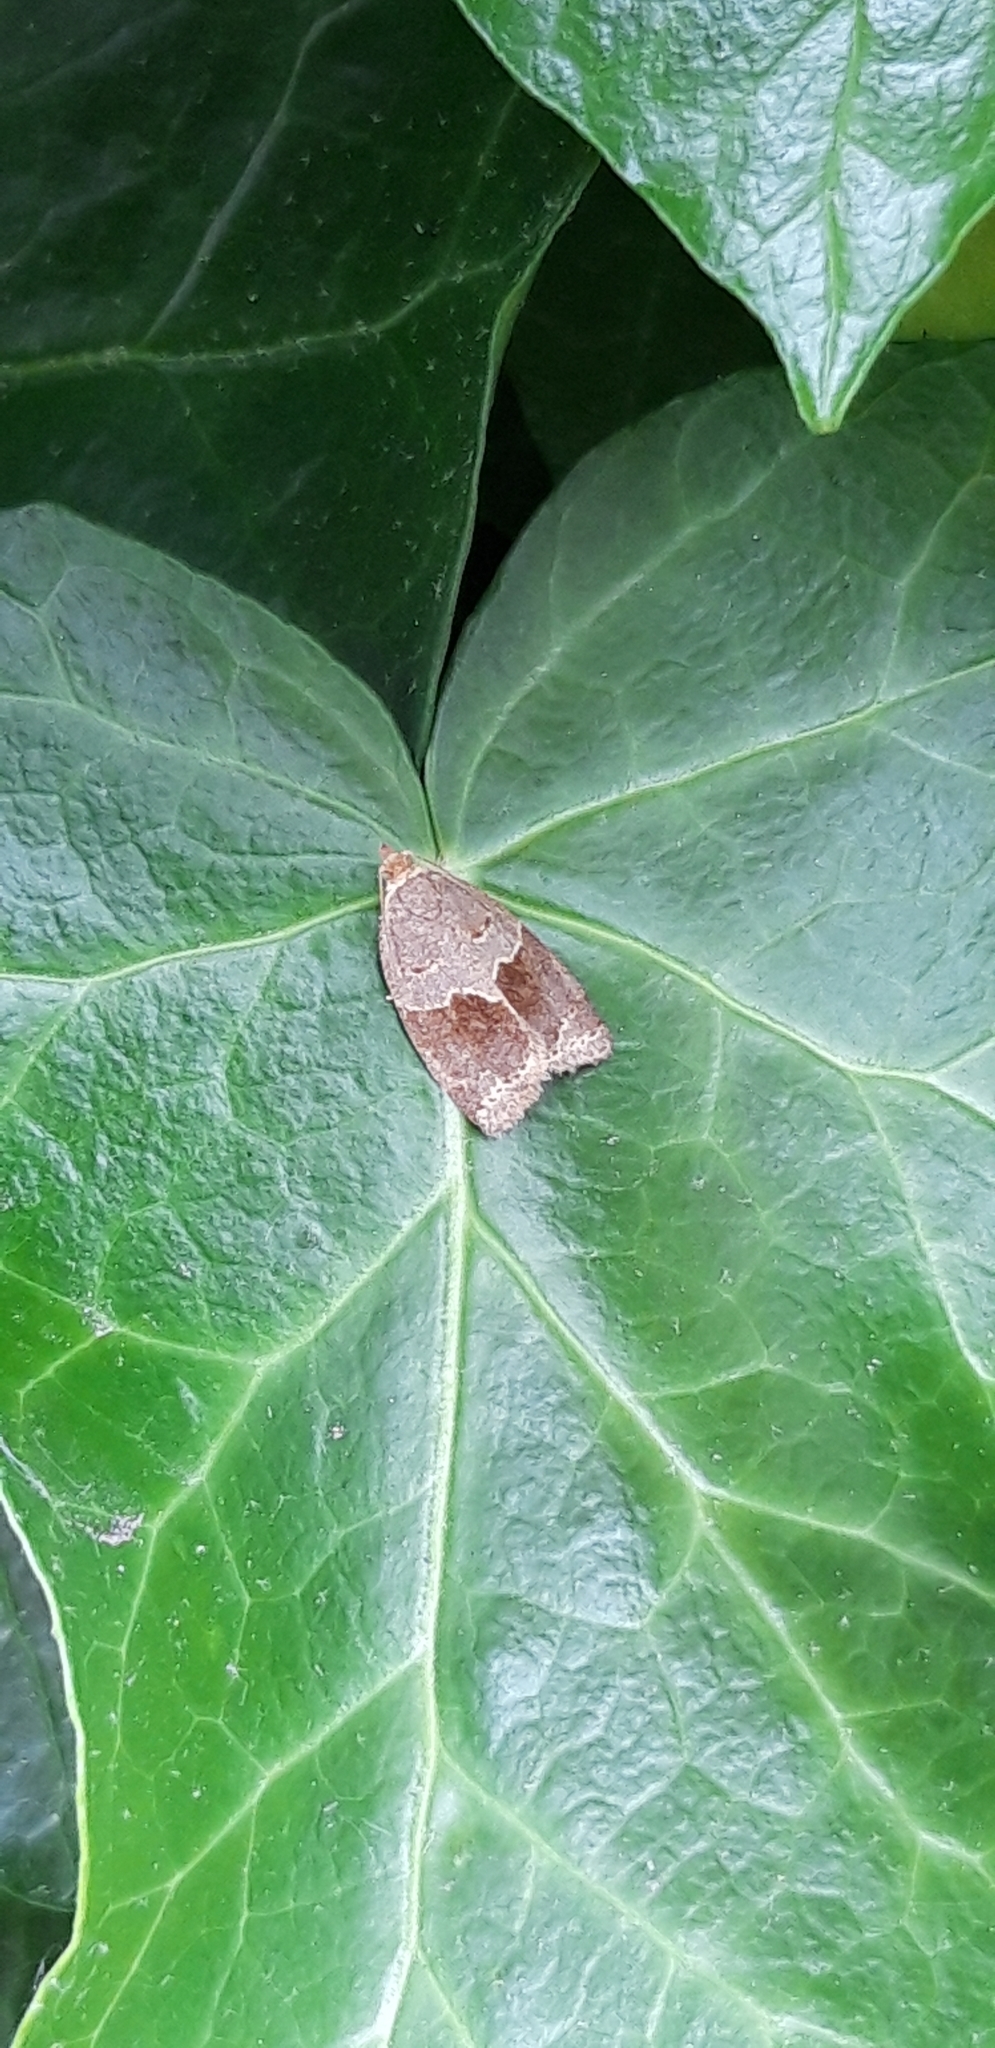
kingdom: Animalia
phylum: Arthropoda
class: Insecta
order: Lepidoptera
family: Tortricidae
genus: Clepsis
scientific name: Clepsis dumicolana
